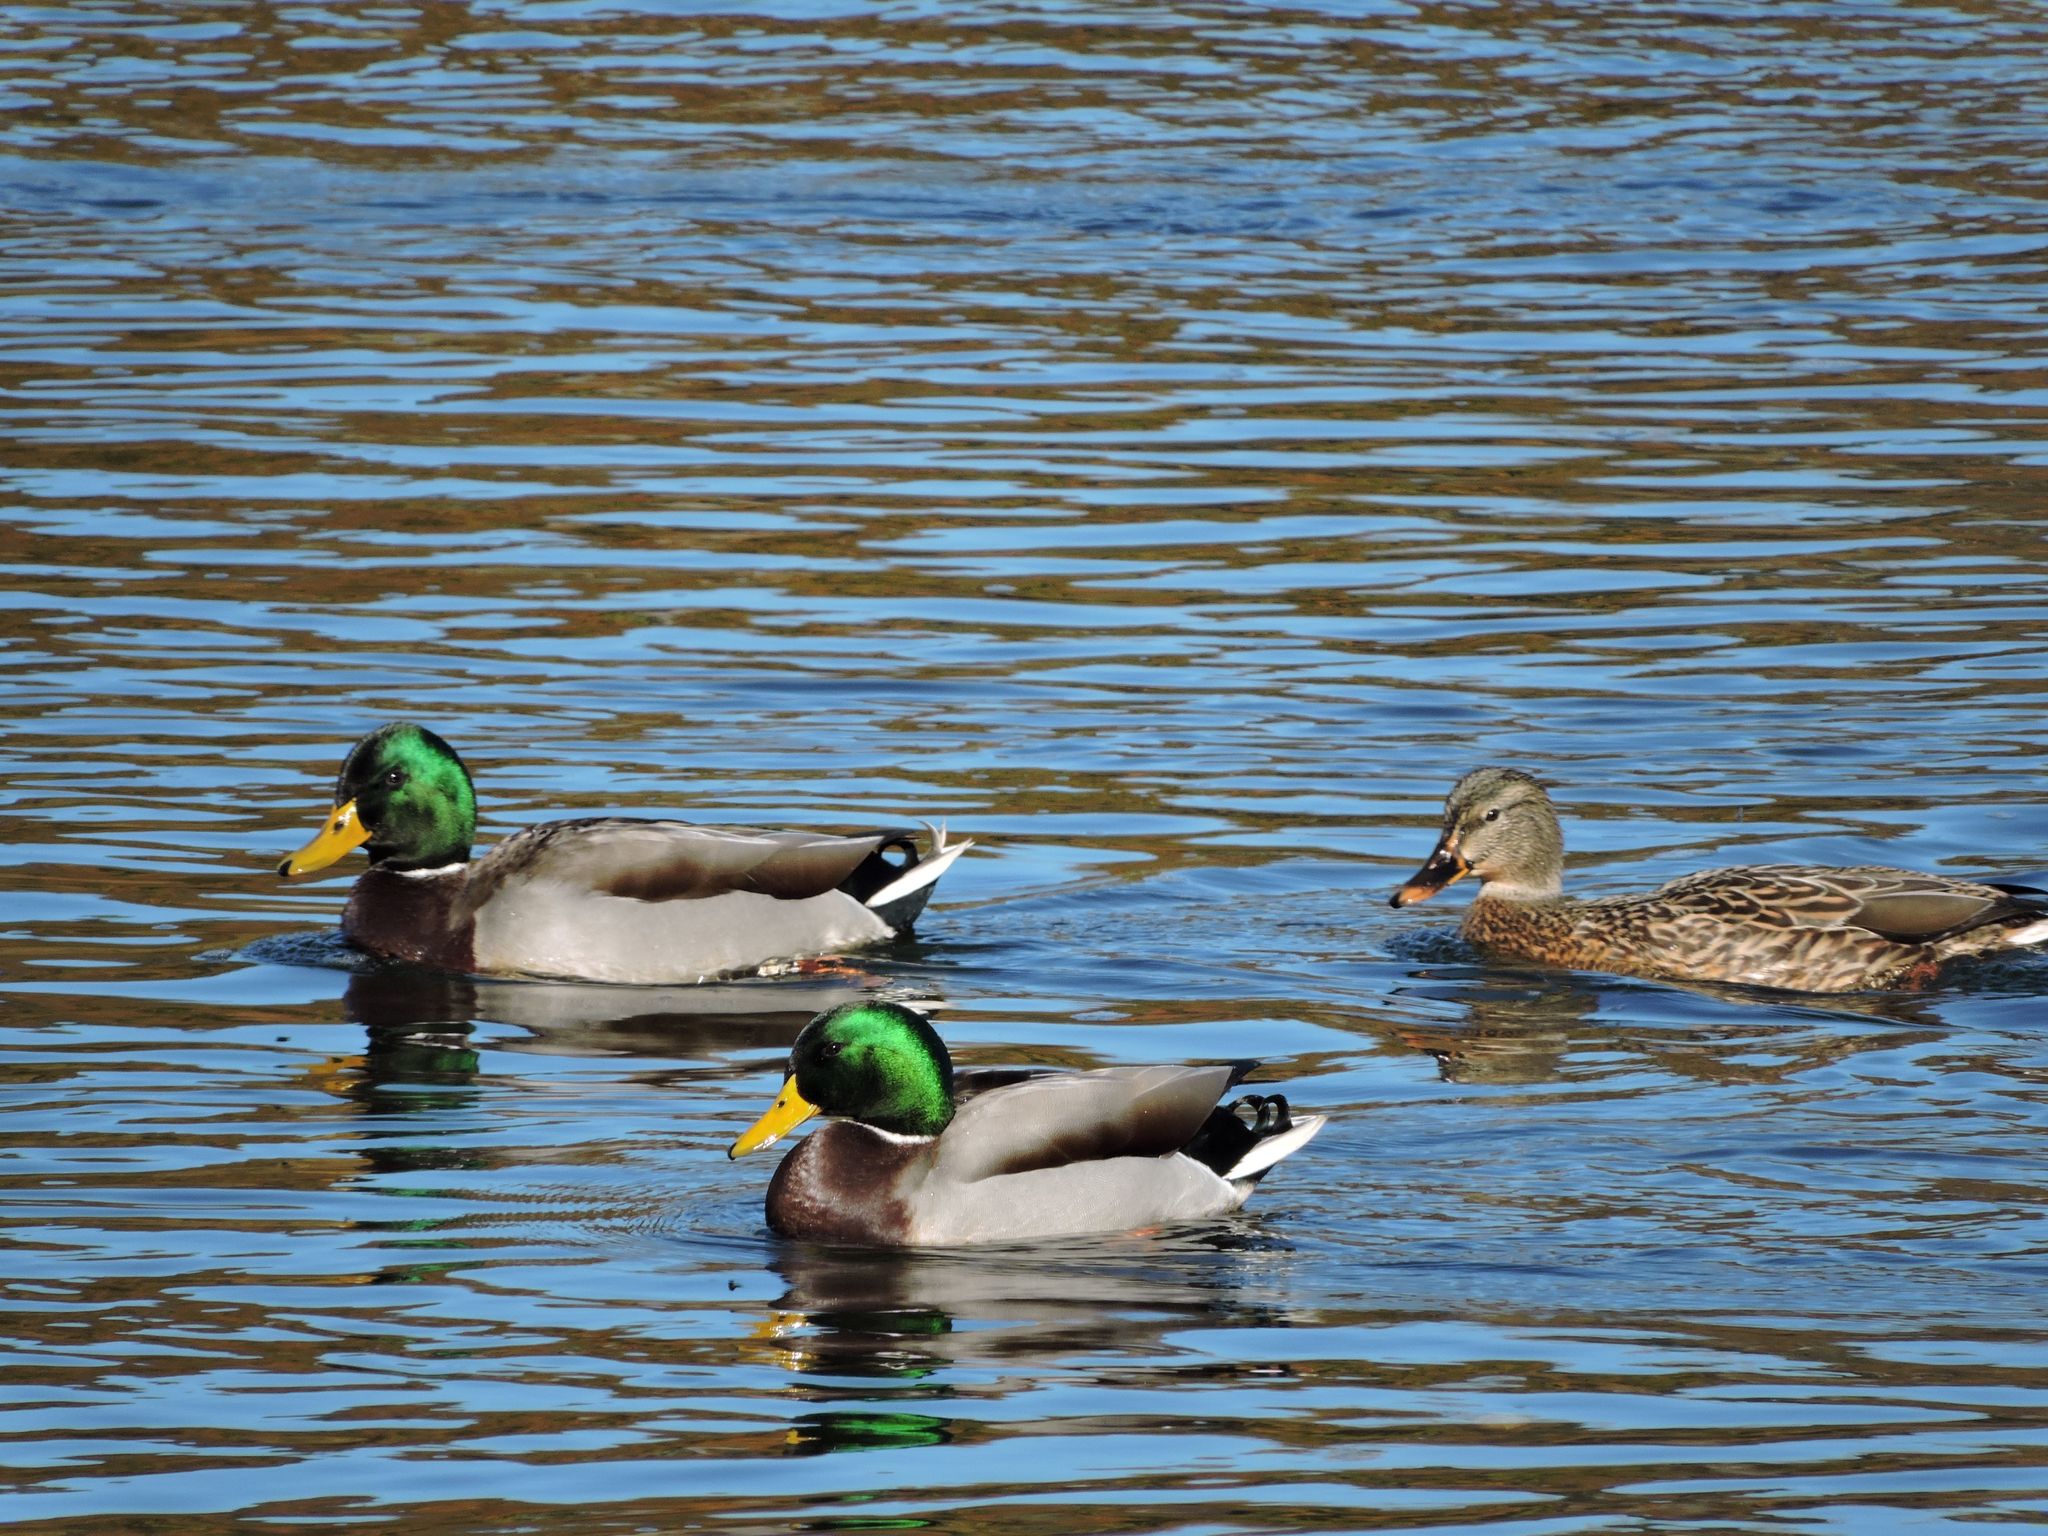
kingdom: Animalia
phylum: Chordata
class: Aves
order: Anseriformes
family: Anatidae
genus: Anas
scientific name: Anas platyrhynchos
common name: Mallard
